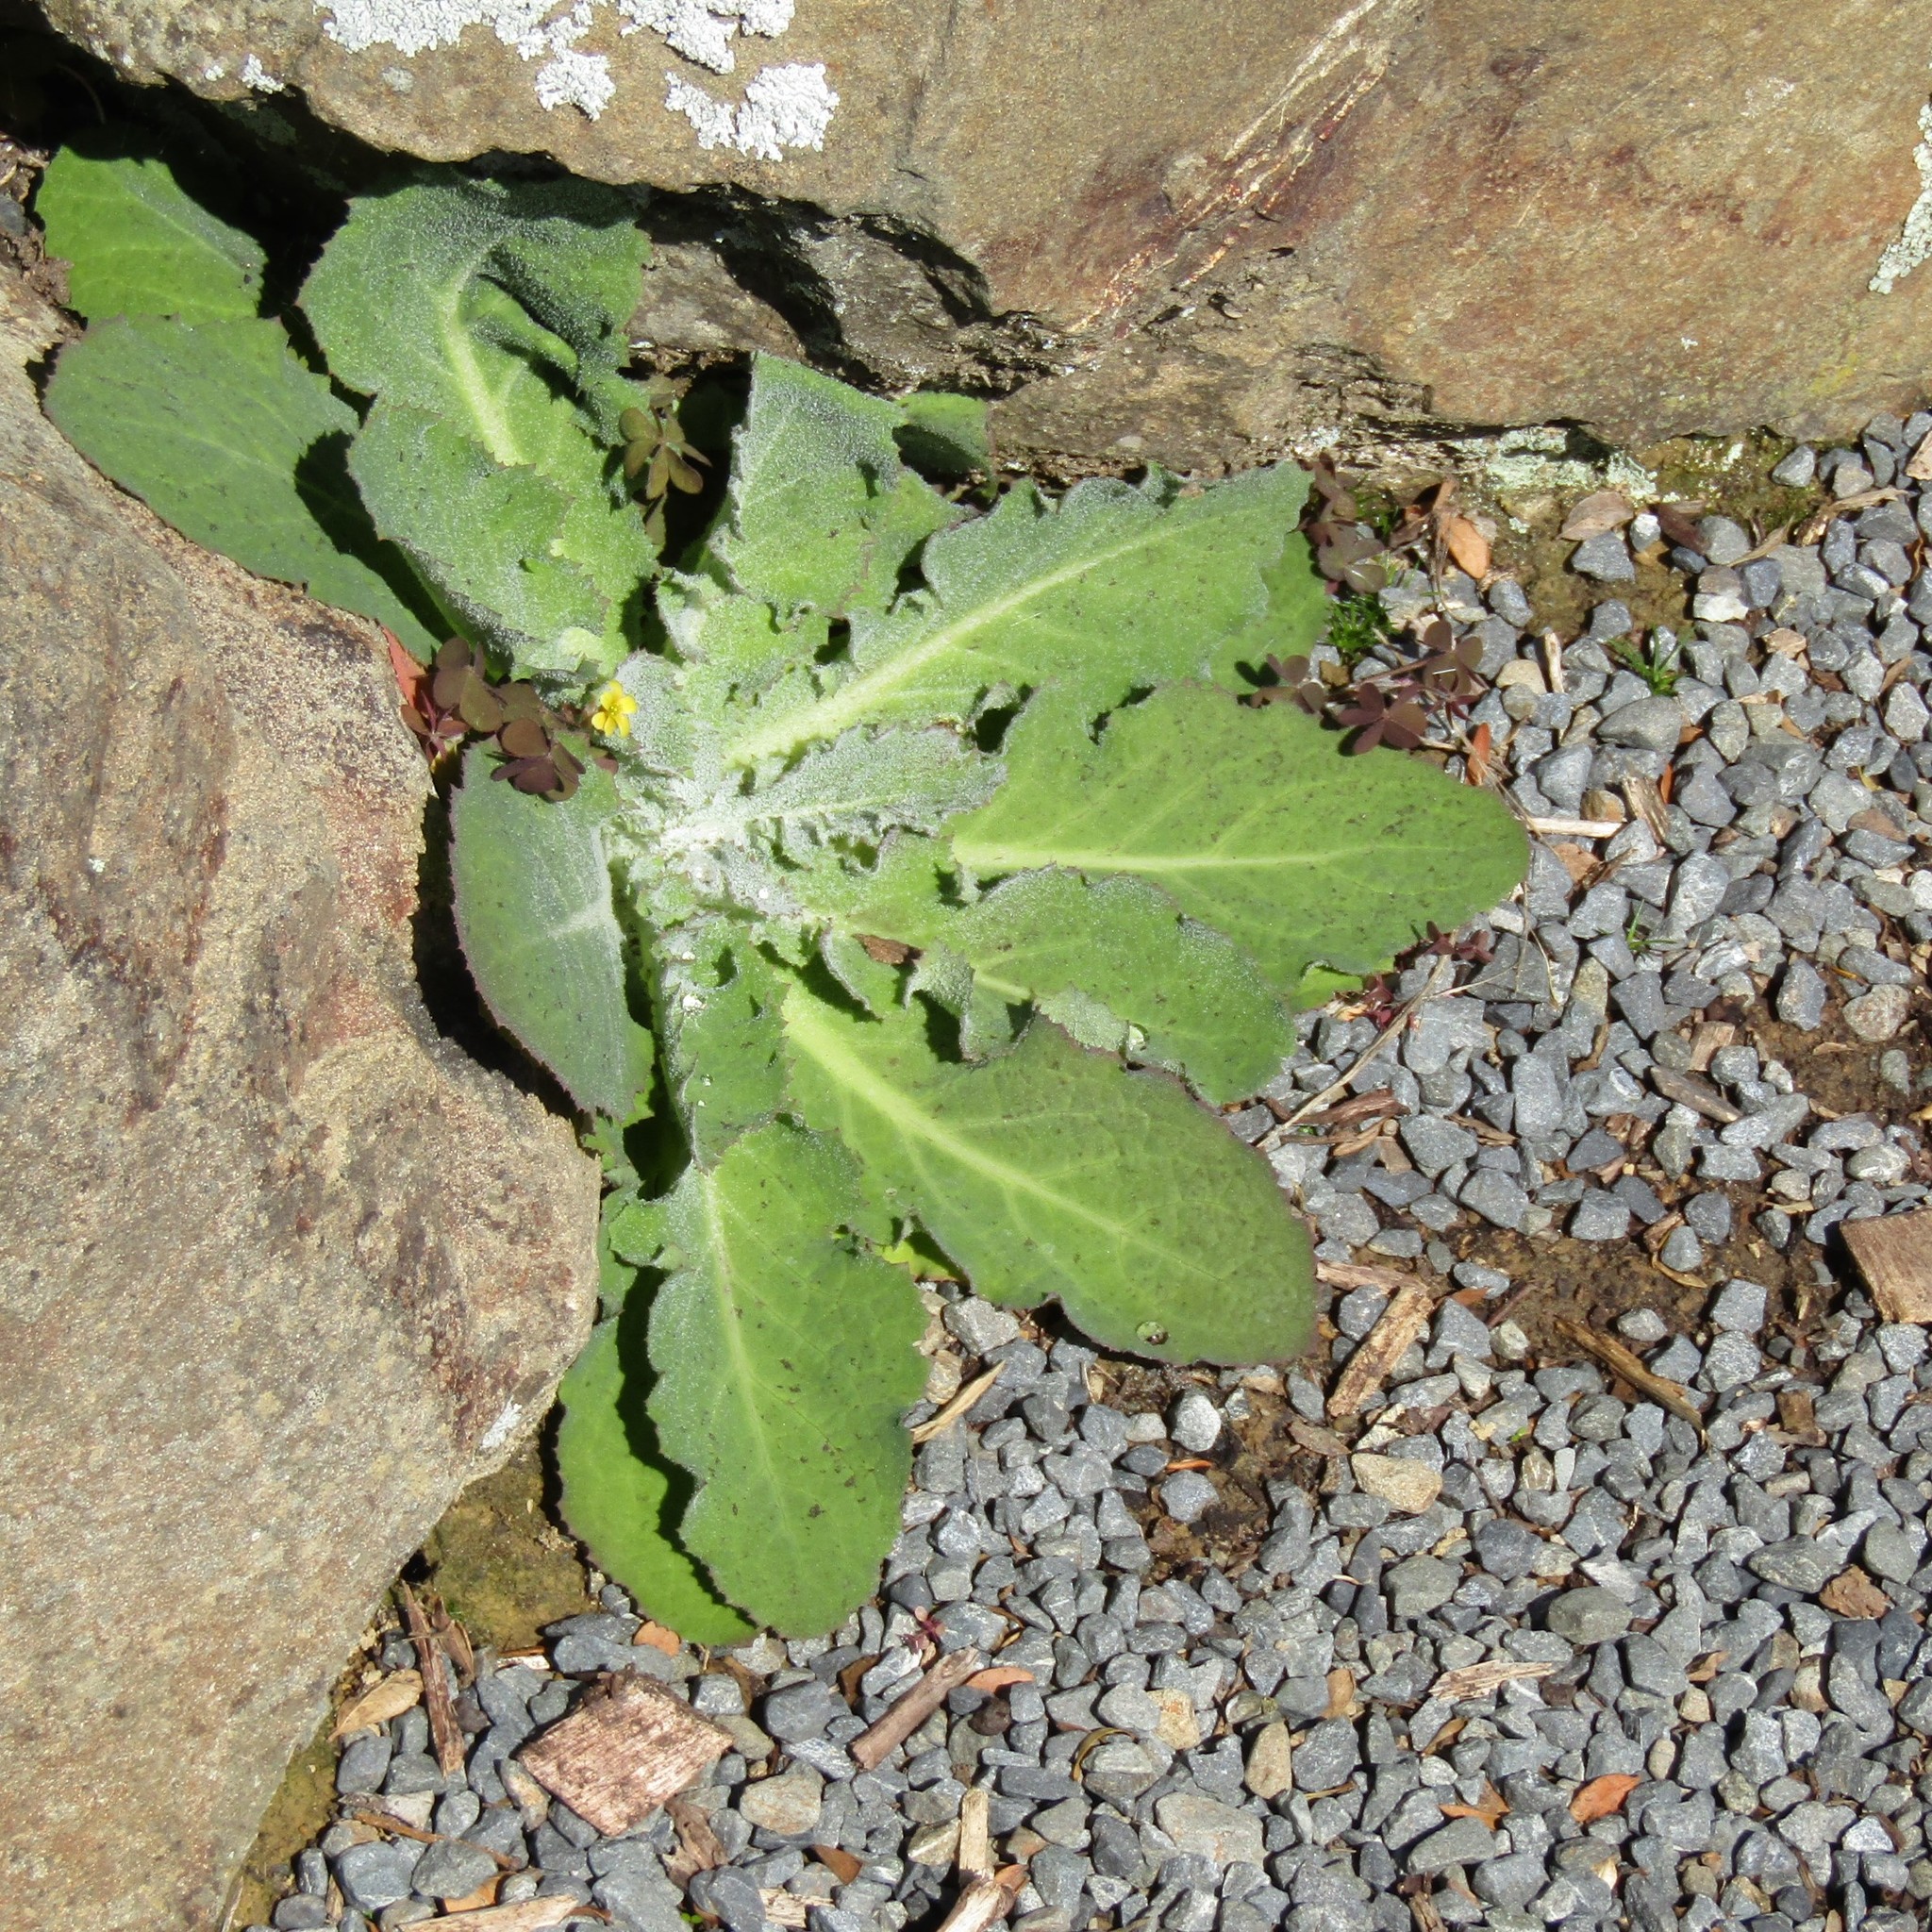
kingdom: Plantae
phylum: Tracheophyta
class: Magnoliopsida
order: Asterales
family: Asteraceae
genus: Sonchus
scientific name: Sonchus kirkii
